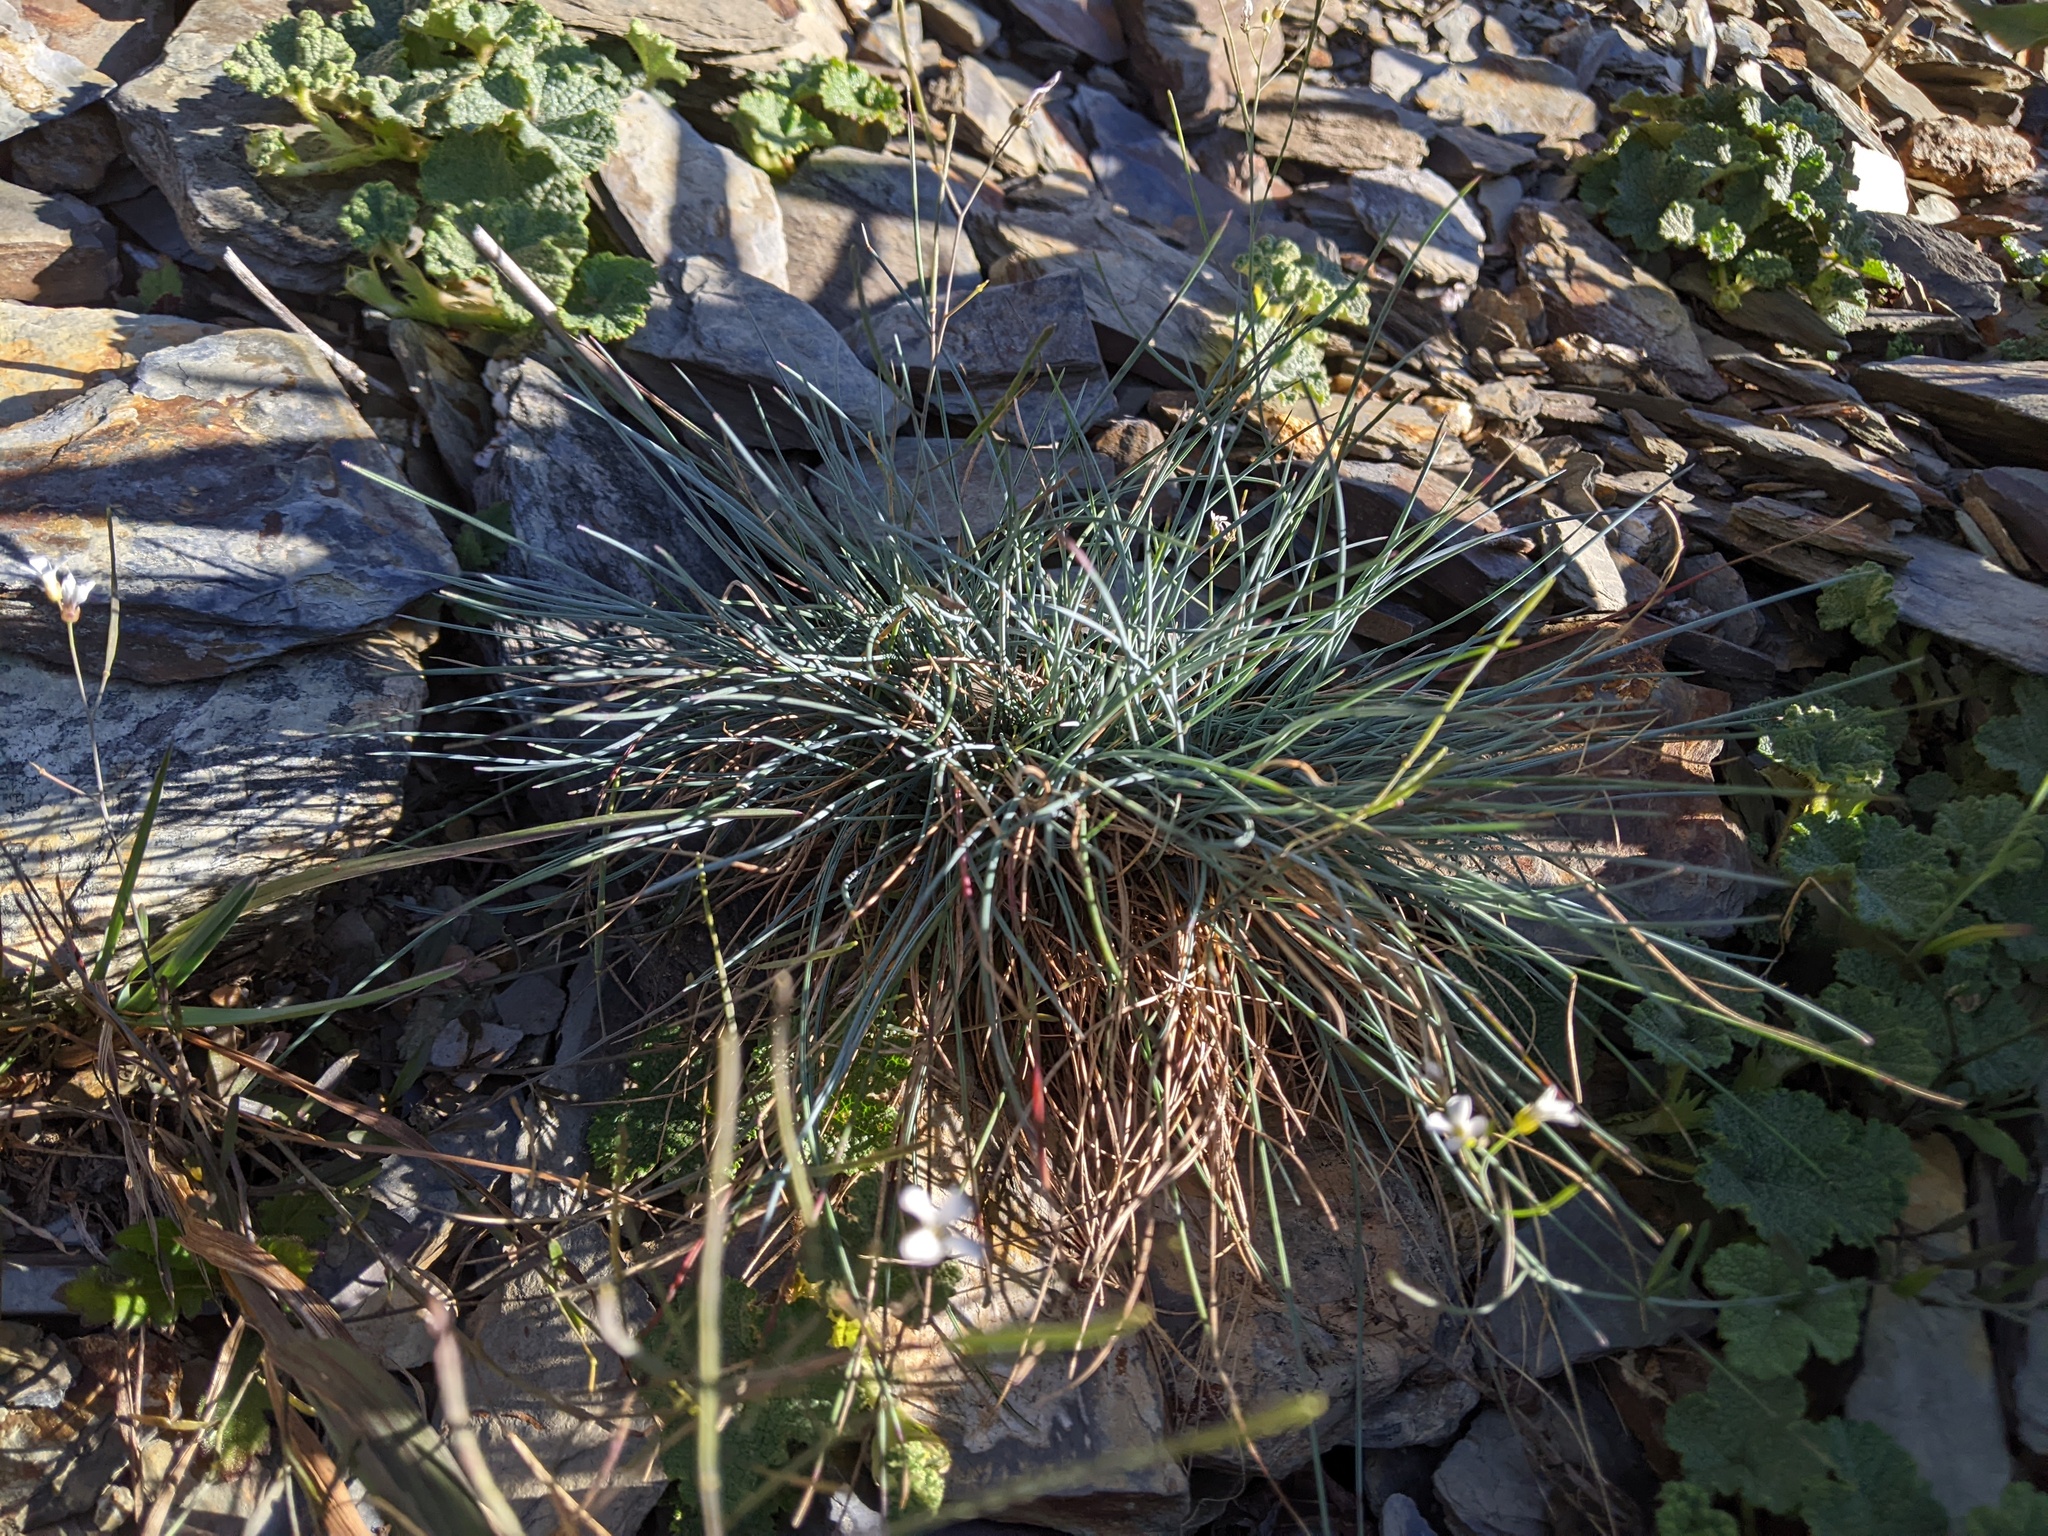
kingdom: Plantae
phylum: Tracheophyta
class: Liliopsida
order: Poales
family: Poaceae
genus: Festuca
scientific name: Festuca ovina
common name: Sheep fescue
